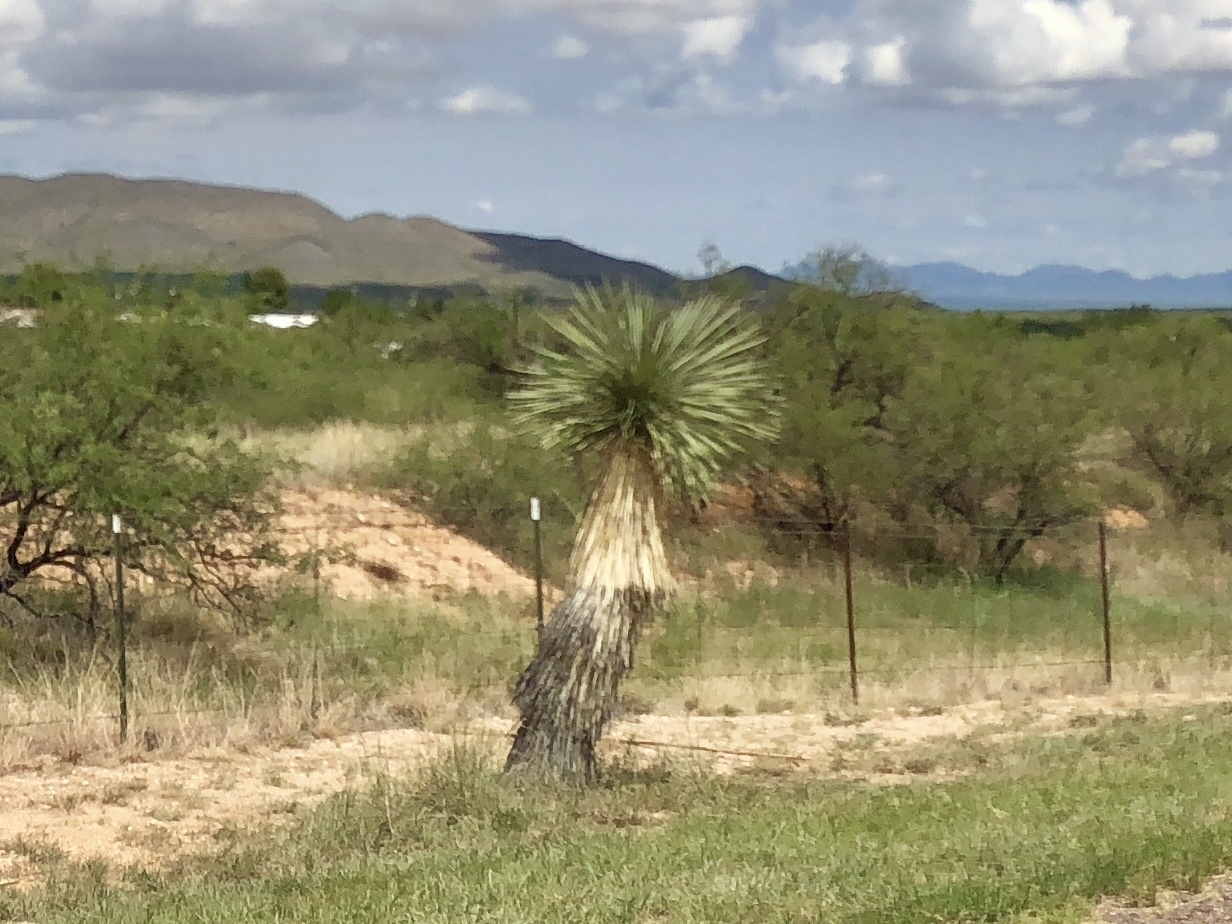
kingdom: Plantae
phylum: Tracheophyta
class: Liliopsida
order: Asparagales
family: Asparagaceae
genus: Yucca
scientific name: Yucca elata
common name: Palmella
